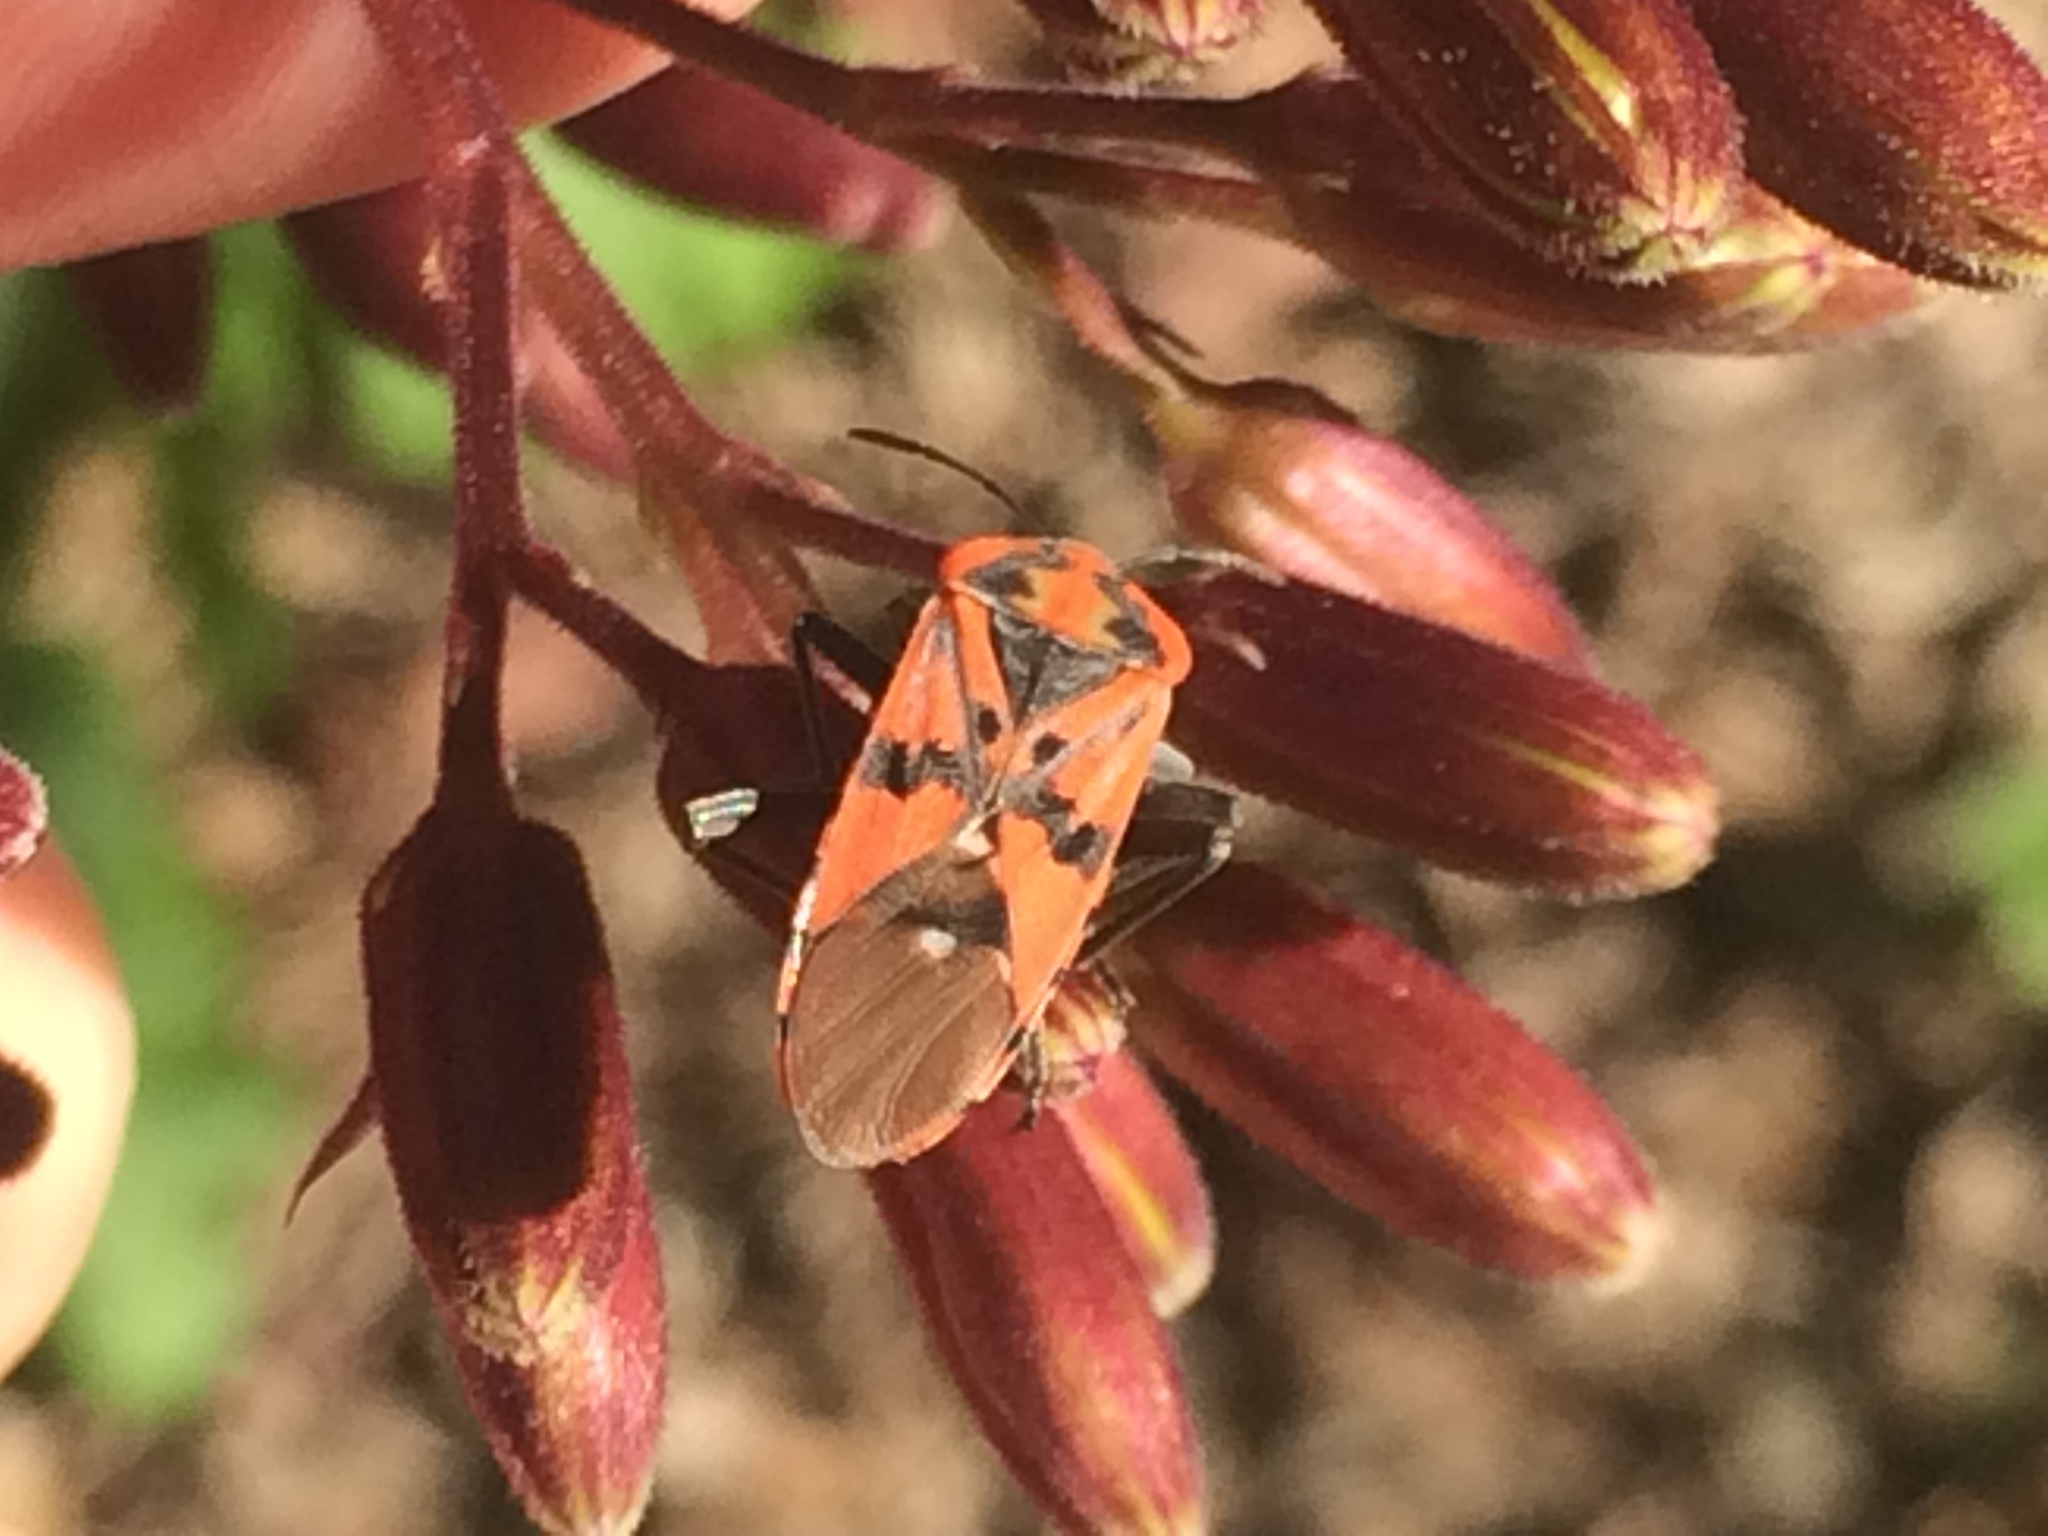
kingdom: Animalia
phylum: Arthropoda
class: Insecta
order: Hemiptera
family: Lygaeidae
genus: Spilostethus
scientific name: Spilostethus pandurus
